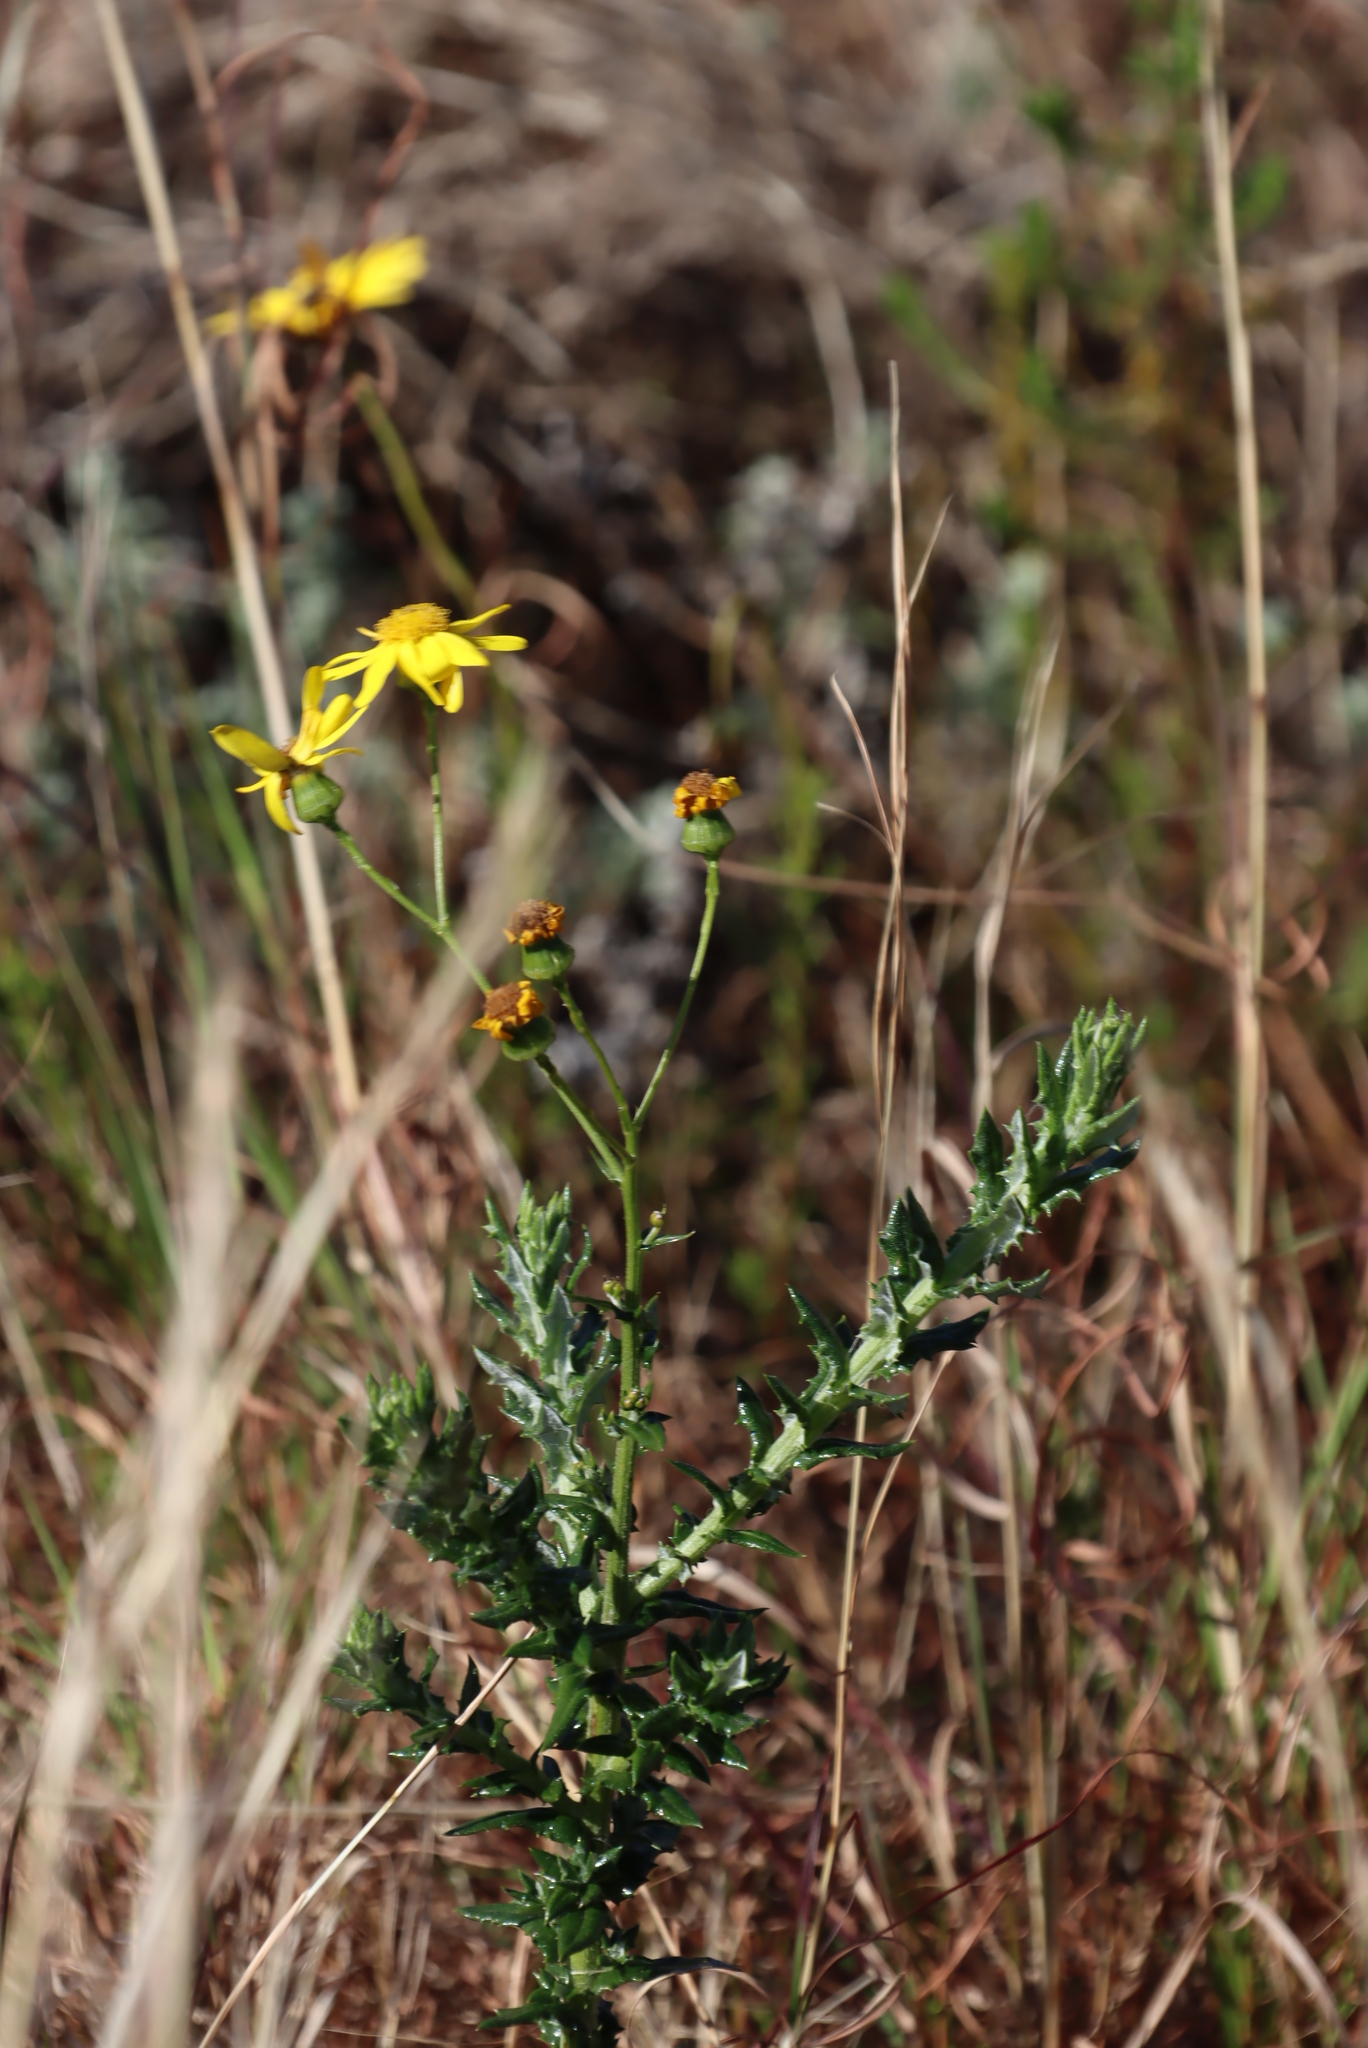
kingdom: Plantae
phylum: Tracheophyta
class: Magnoliopsida
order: Asterales
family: Asteraceae
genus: Senecio
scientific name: Senecio ilicifolius
